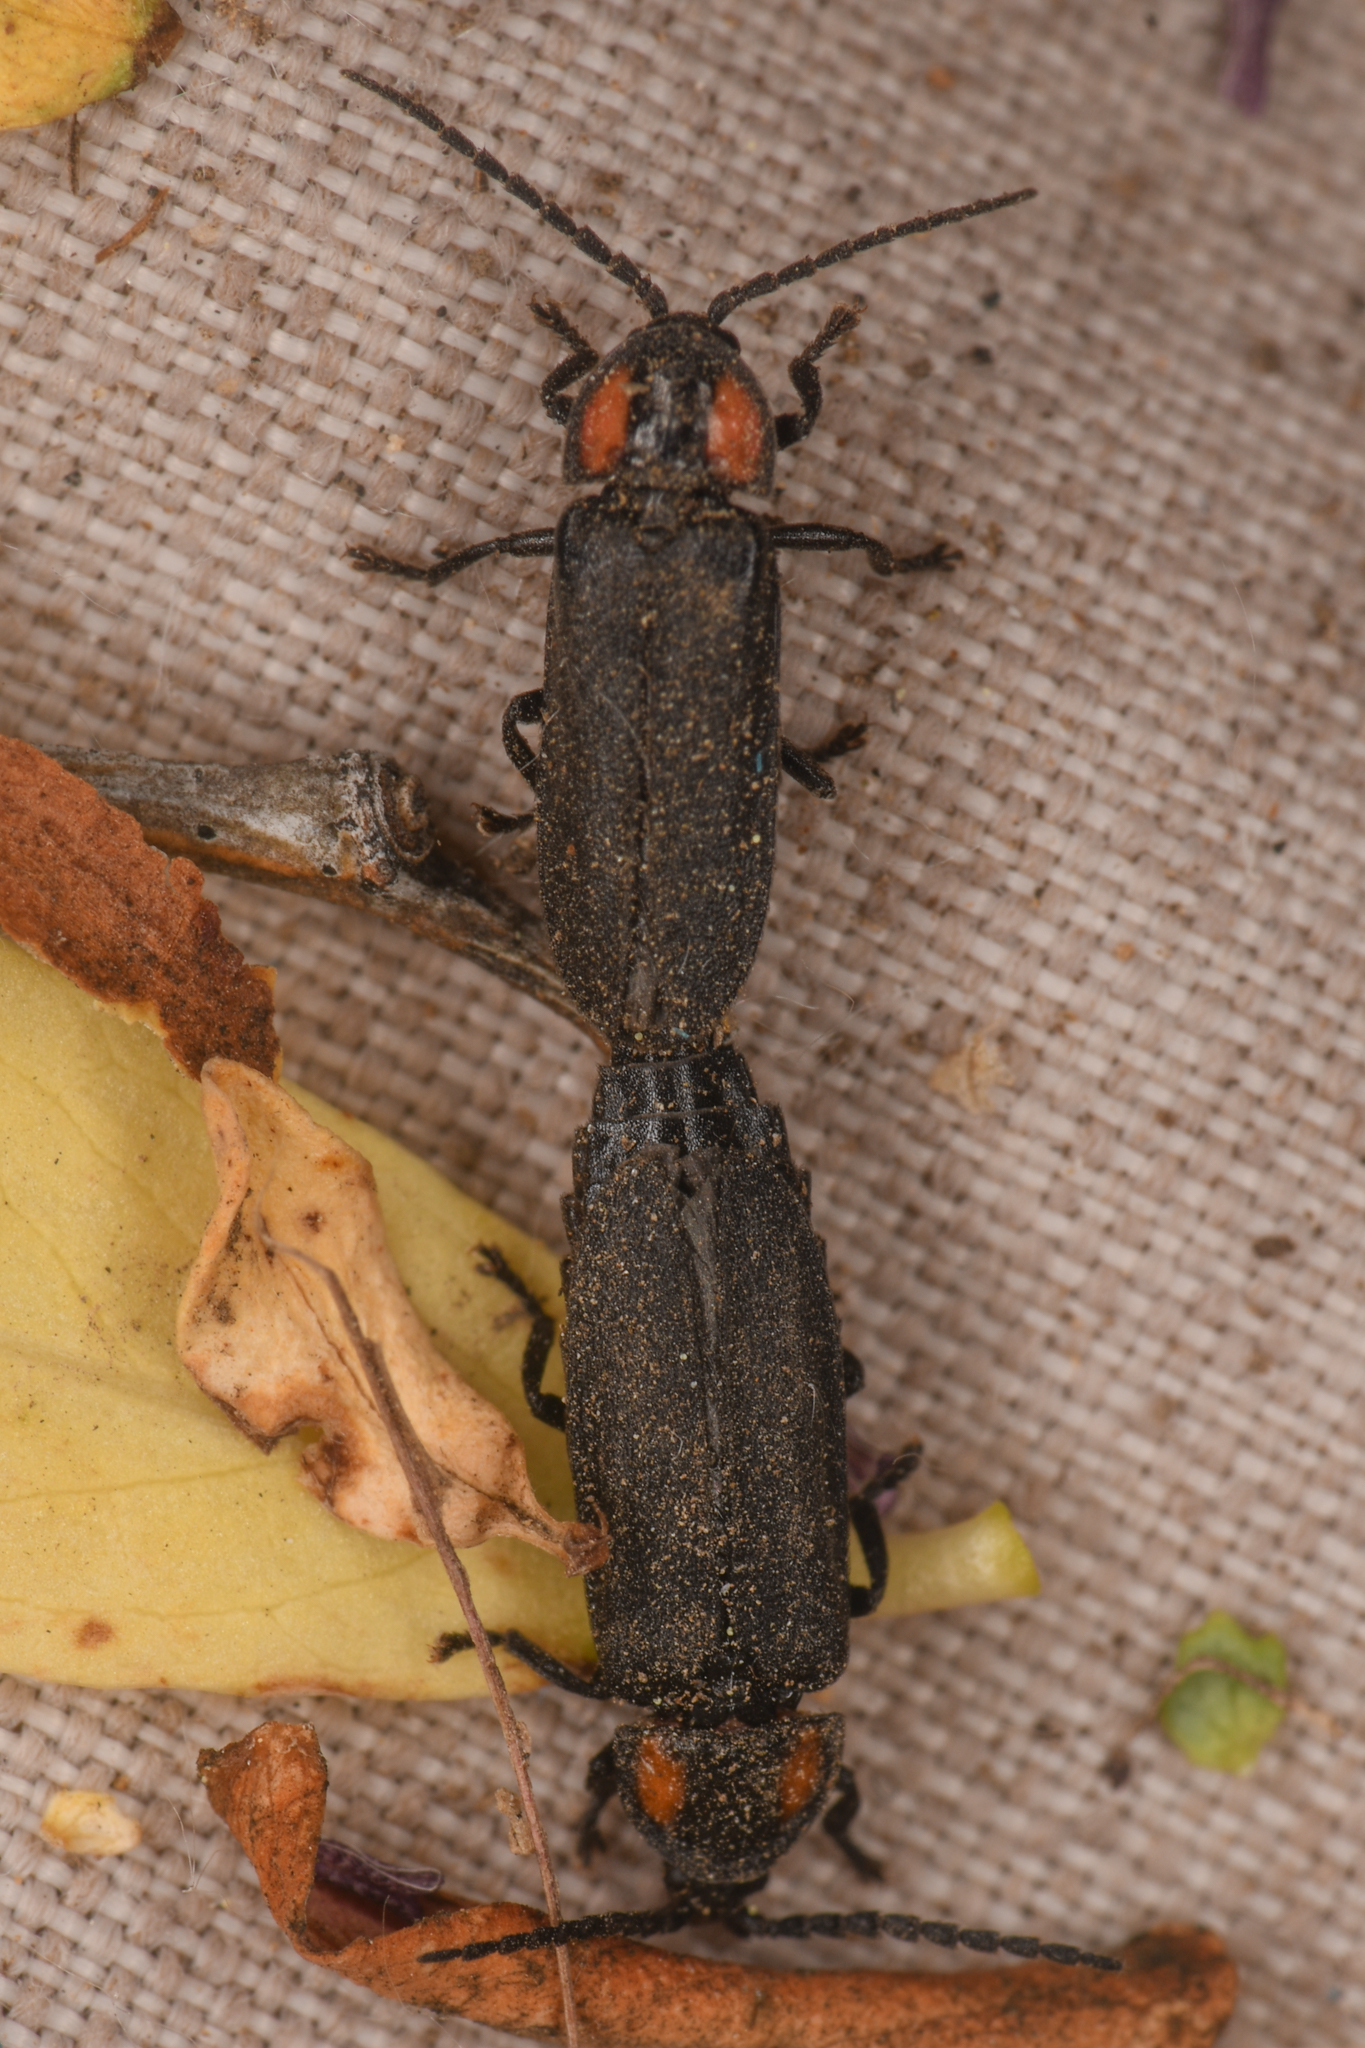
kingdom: Animalia
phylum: Arthropoda
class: Insecta
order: Coleoptera
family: Lampyridae
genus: Pyropyga
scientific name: Pyropyga nigricans
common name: Dark firefly
